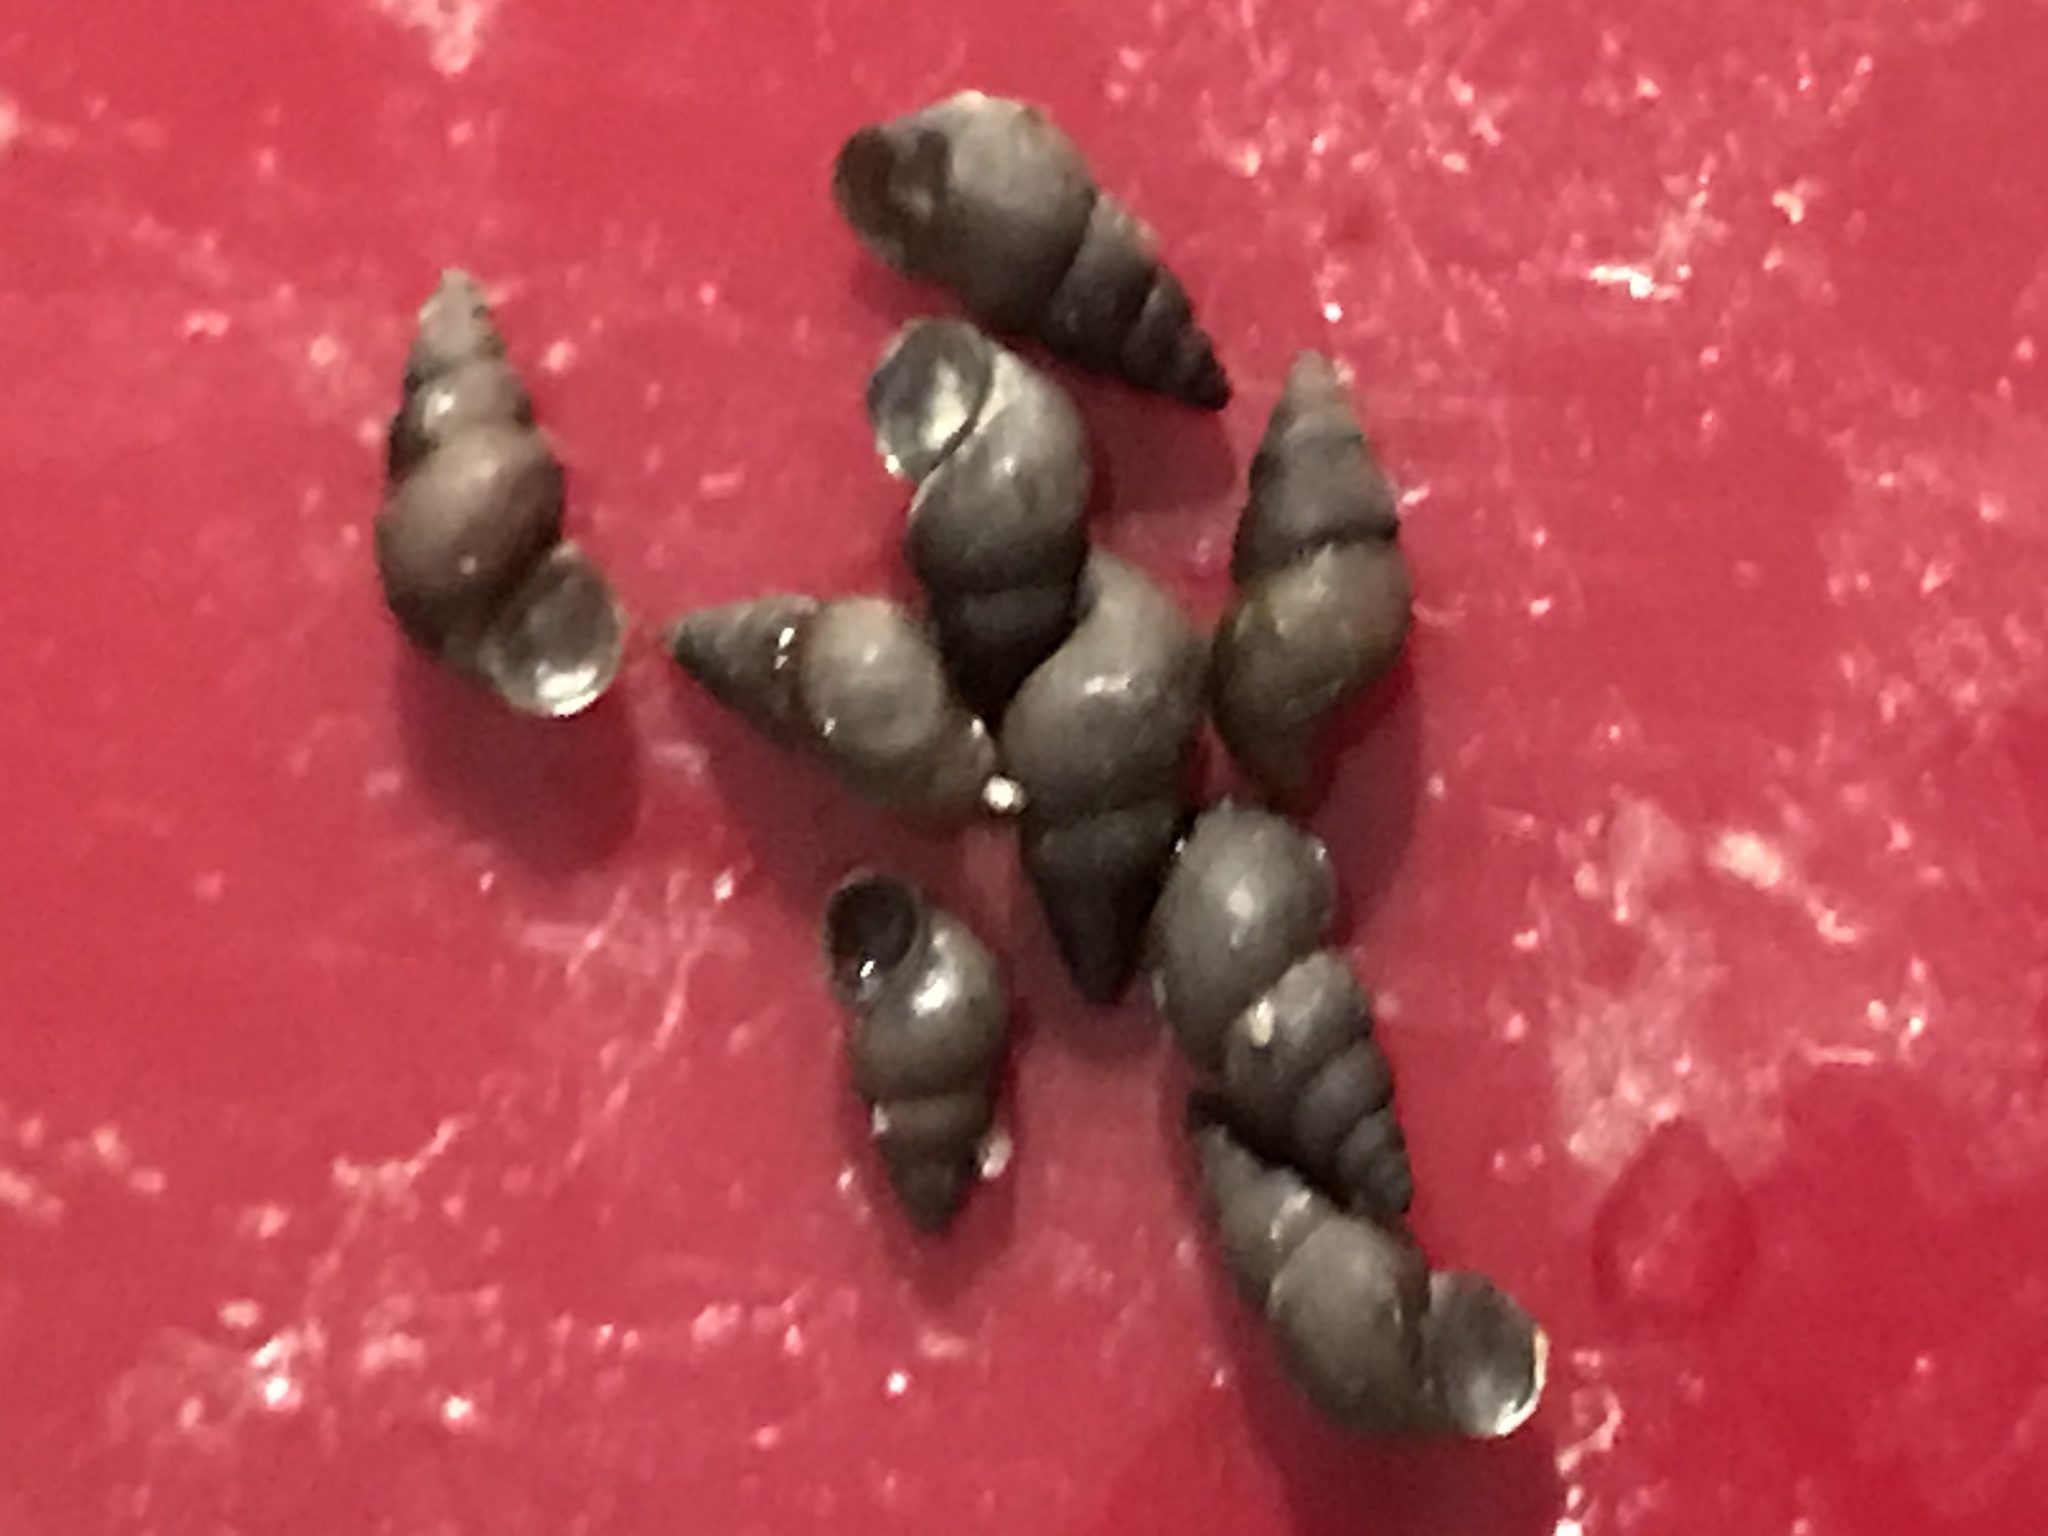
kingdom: Animalia
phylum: Mollusca
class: Gastropoda
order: Littorinimorpha
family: Tateidae
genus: Potamopyrgus
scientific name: Potamopyrgus antipodarum
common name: Jenkins' spire snail
